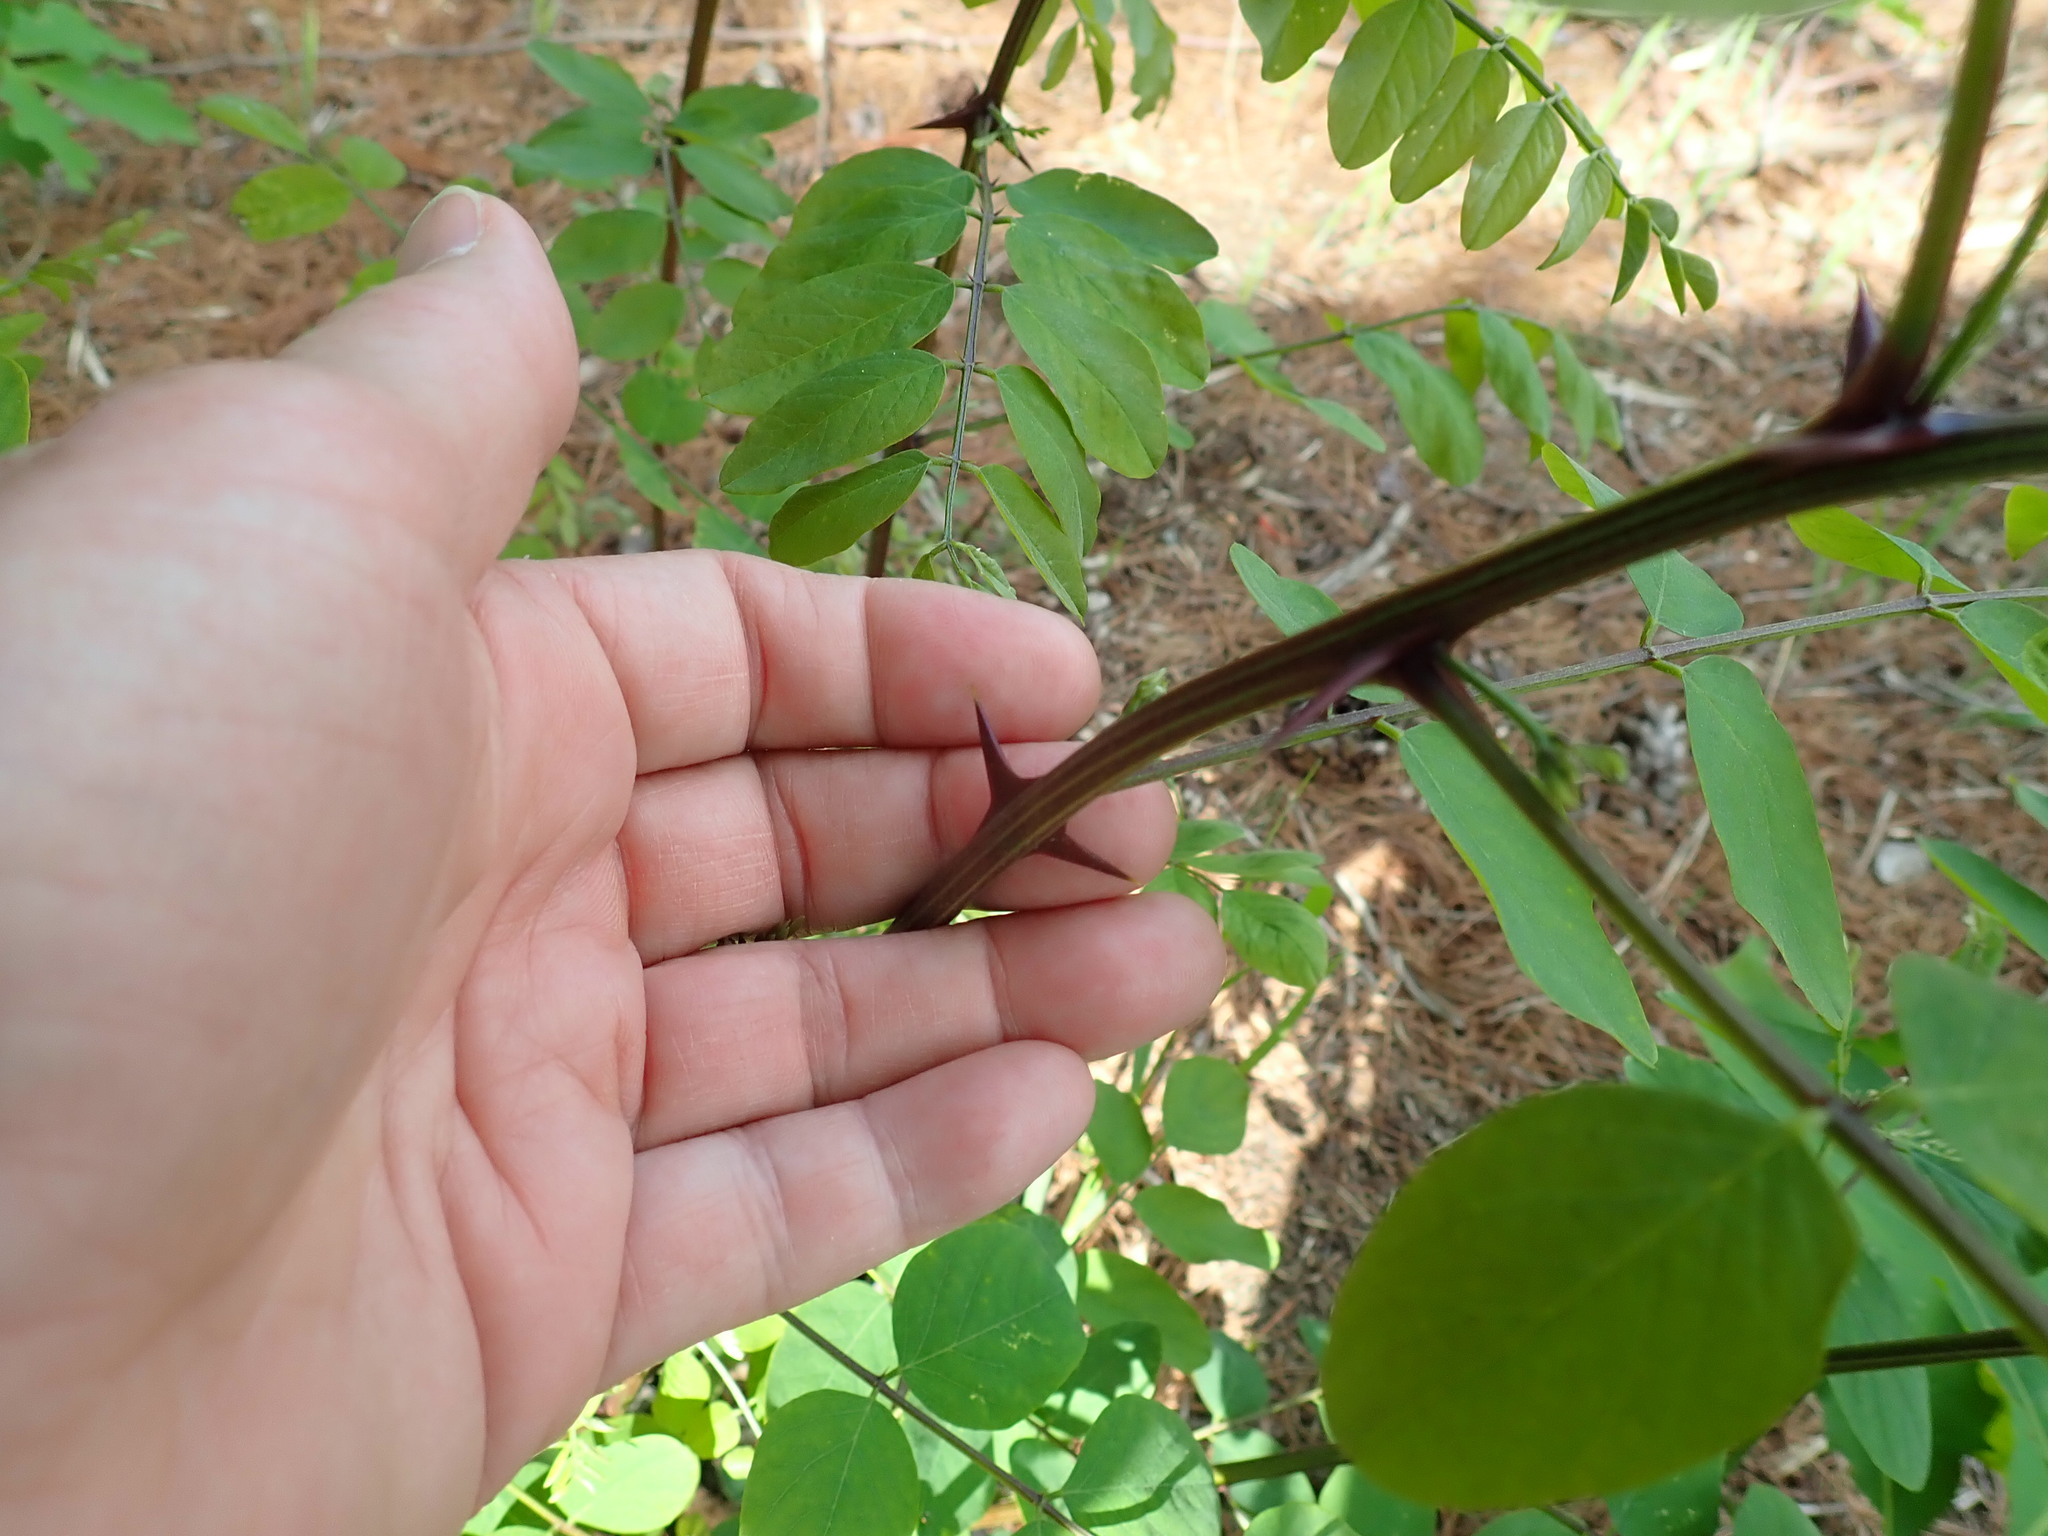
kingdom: Plantae
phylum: Tracheophyta
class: Magnoliopsida
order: Fabales
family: Fabaceae
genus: Robinia
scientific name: Robinia pseudoacacia
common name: Black locust
